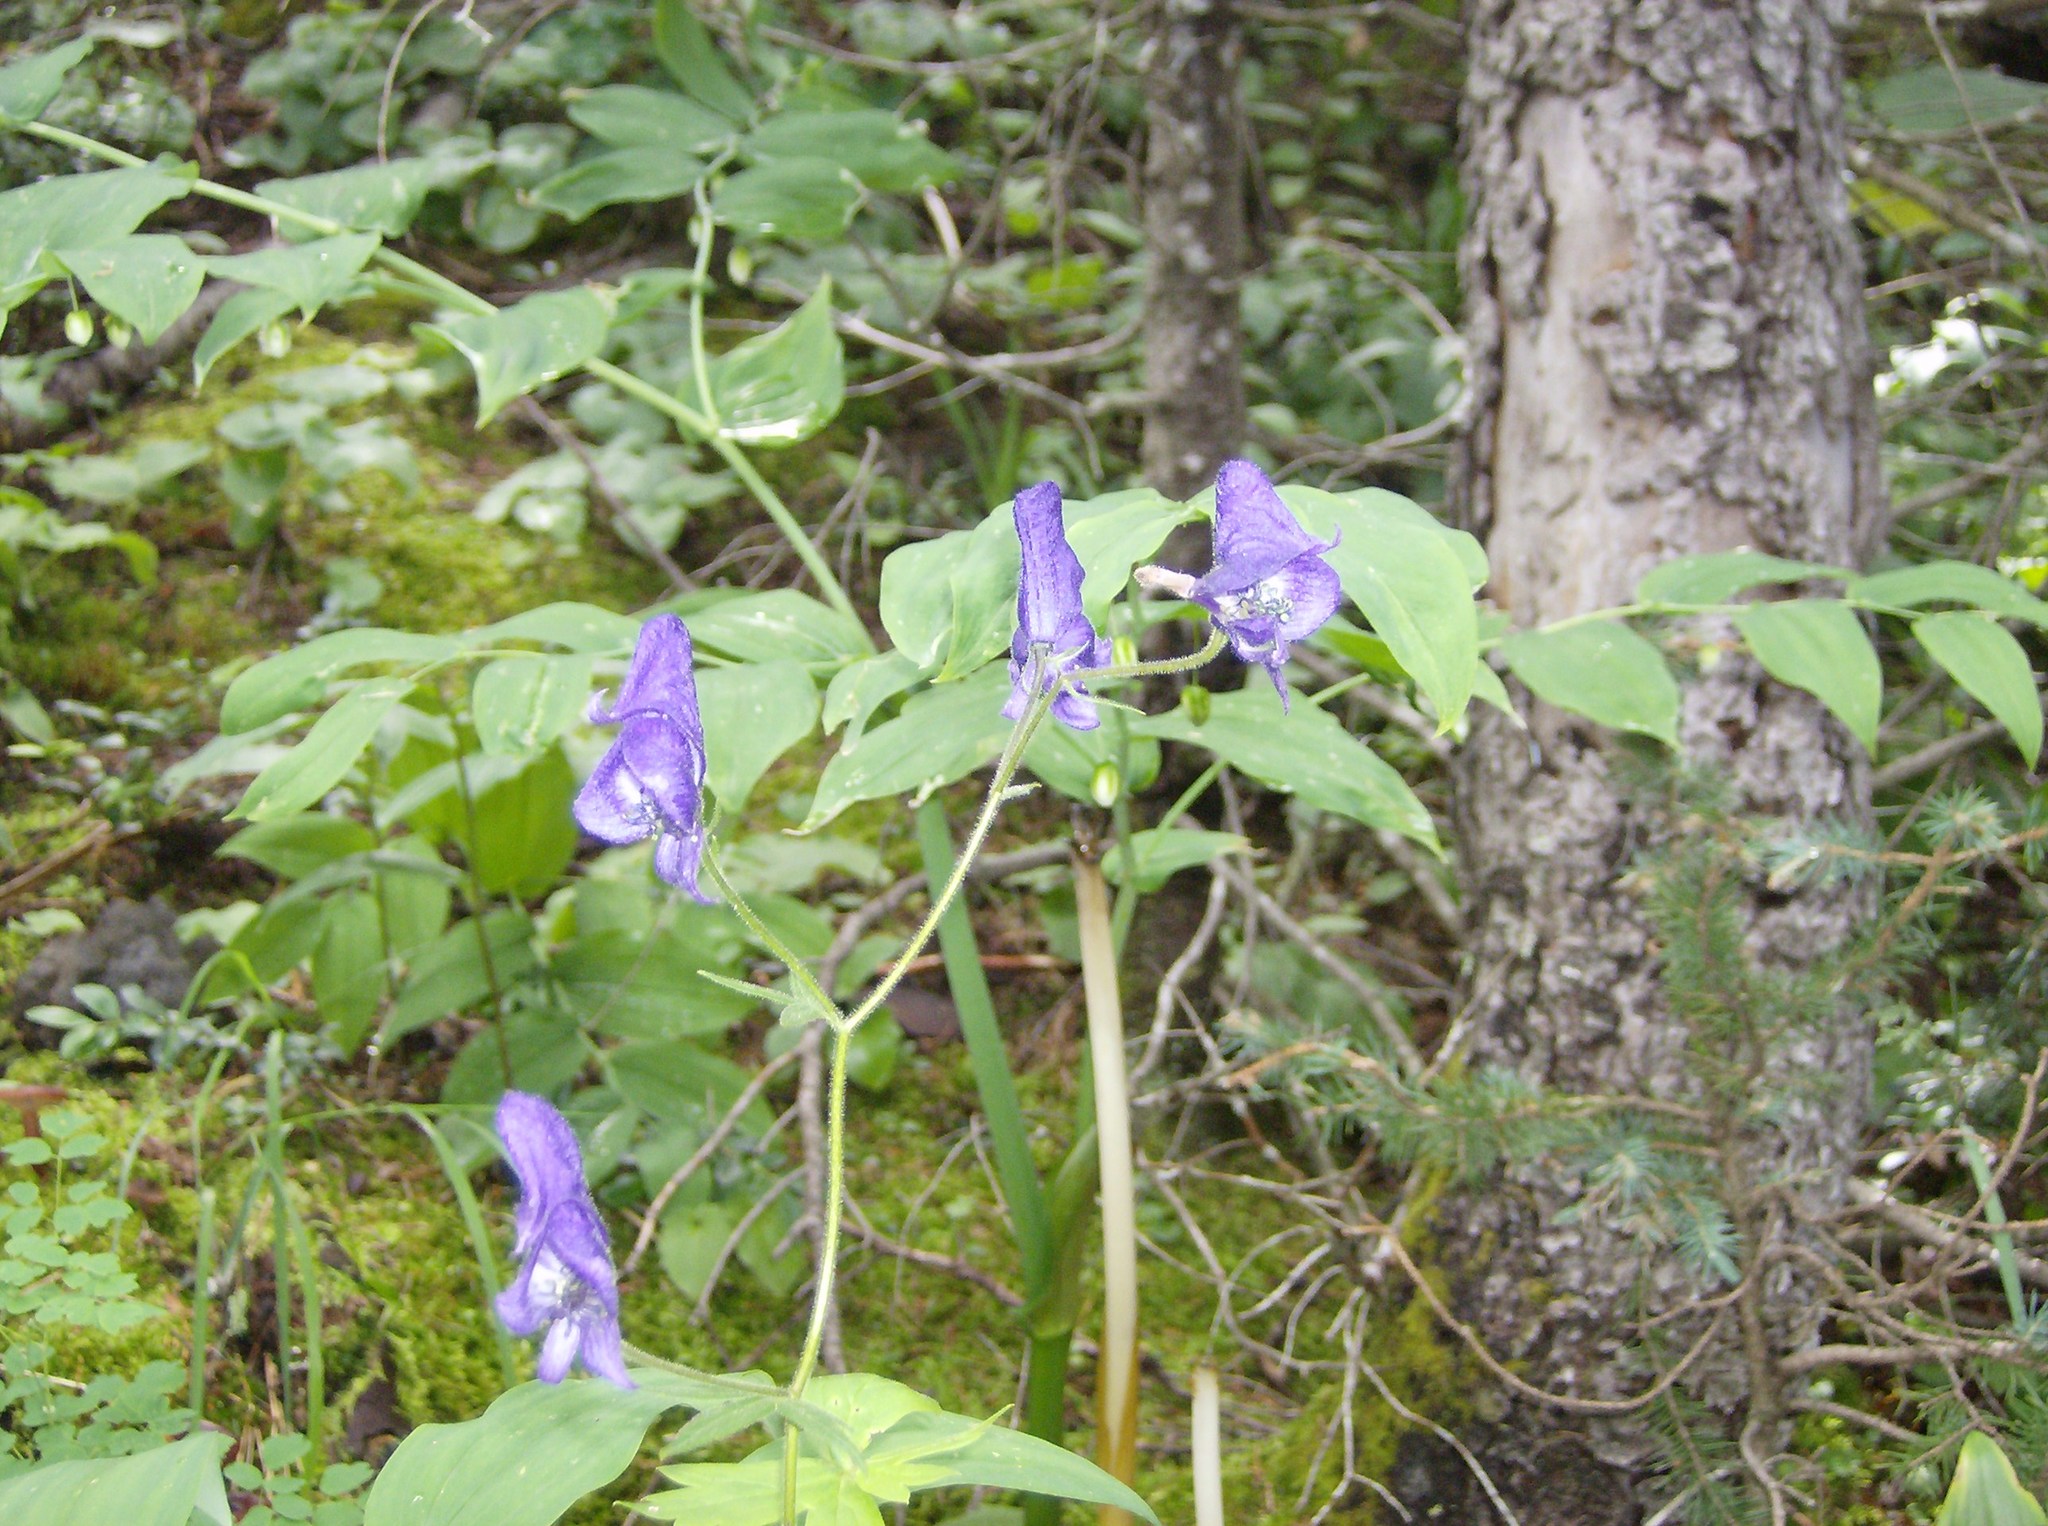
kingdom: Plantae
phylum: Tracheophyta
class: Magnoliopsida
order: Ranunculales
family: Ranunculaceae
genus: Aconitum
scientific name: Aconitum columbianum
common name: Columbia aconite
